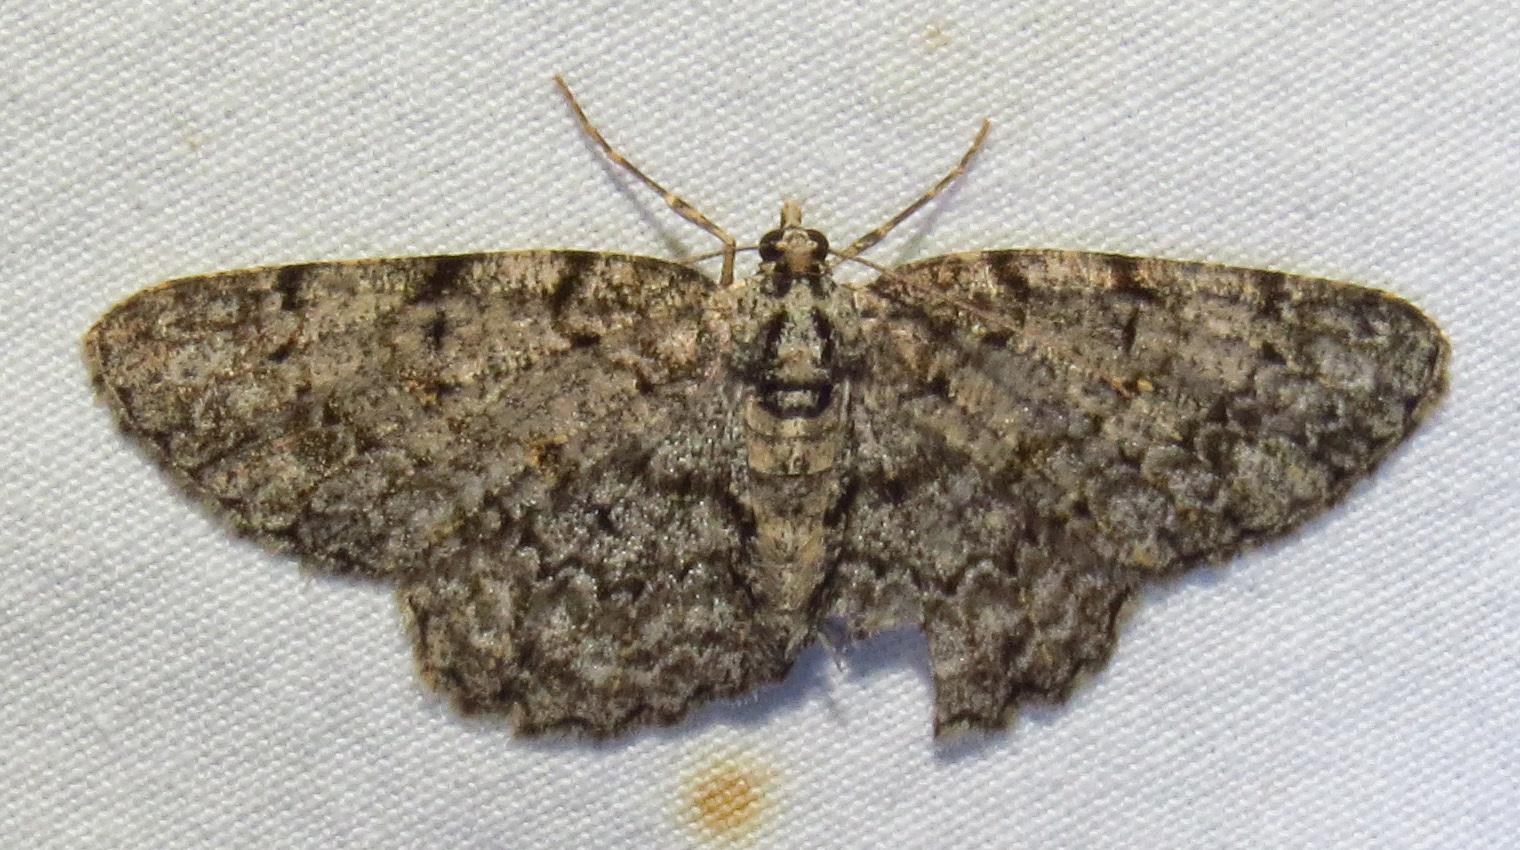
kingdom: Animalia
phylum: Arthropoda
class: Insecta
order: Lepidoptera
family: Geometridae
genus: Protoboarmia
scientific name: Protoboarmia porcelaria
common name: Porcelain gray
